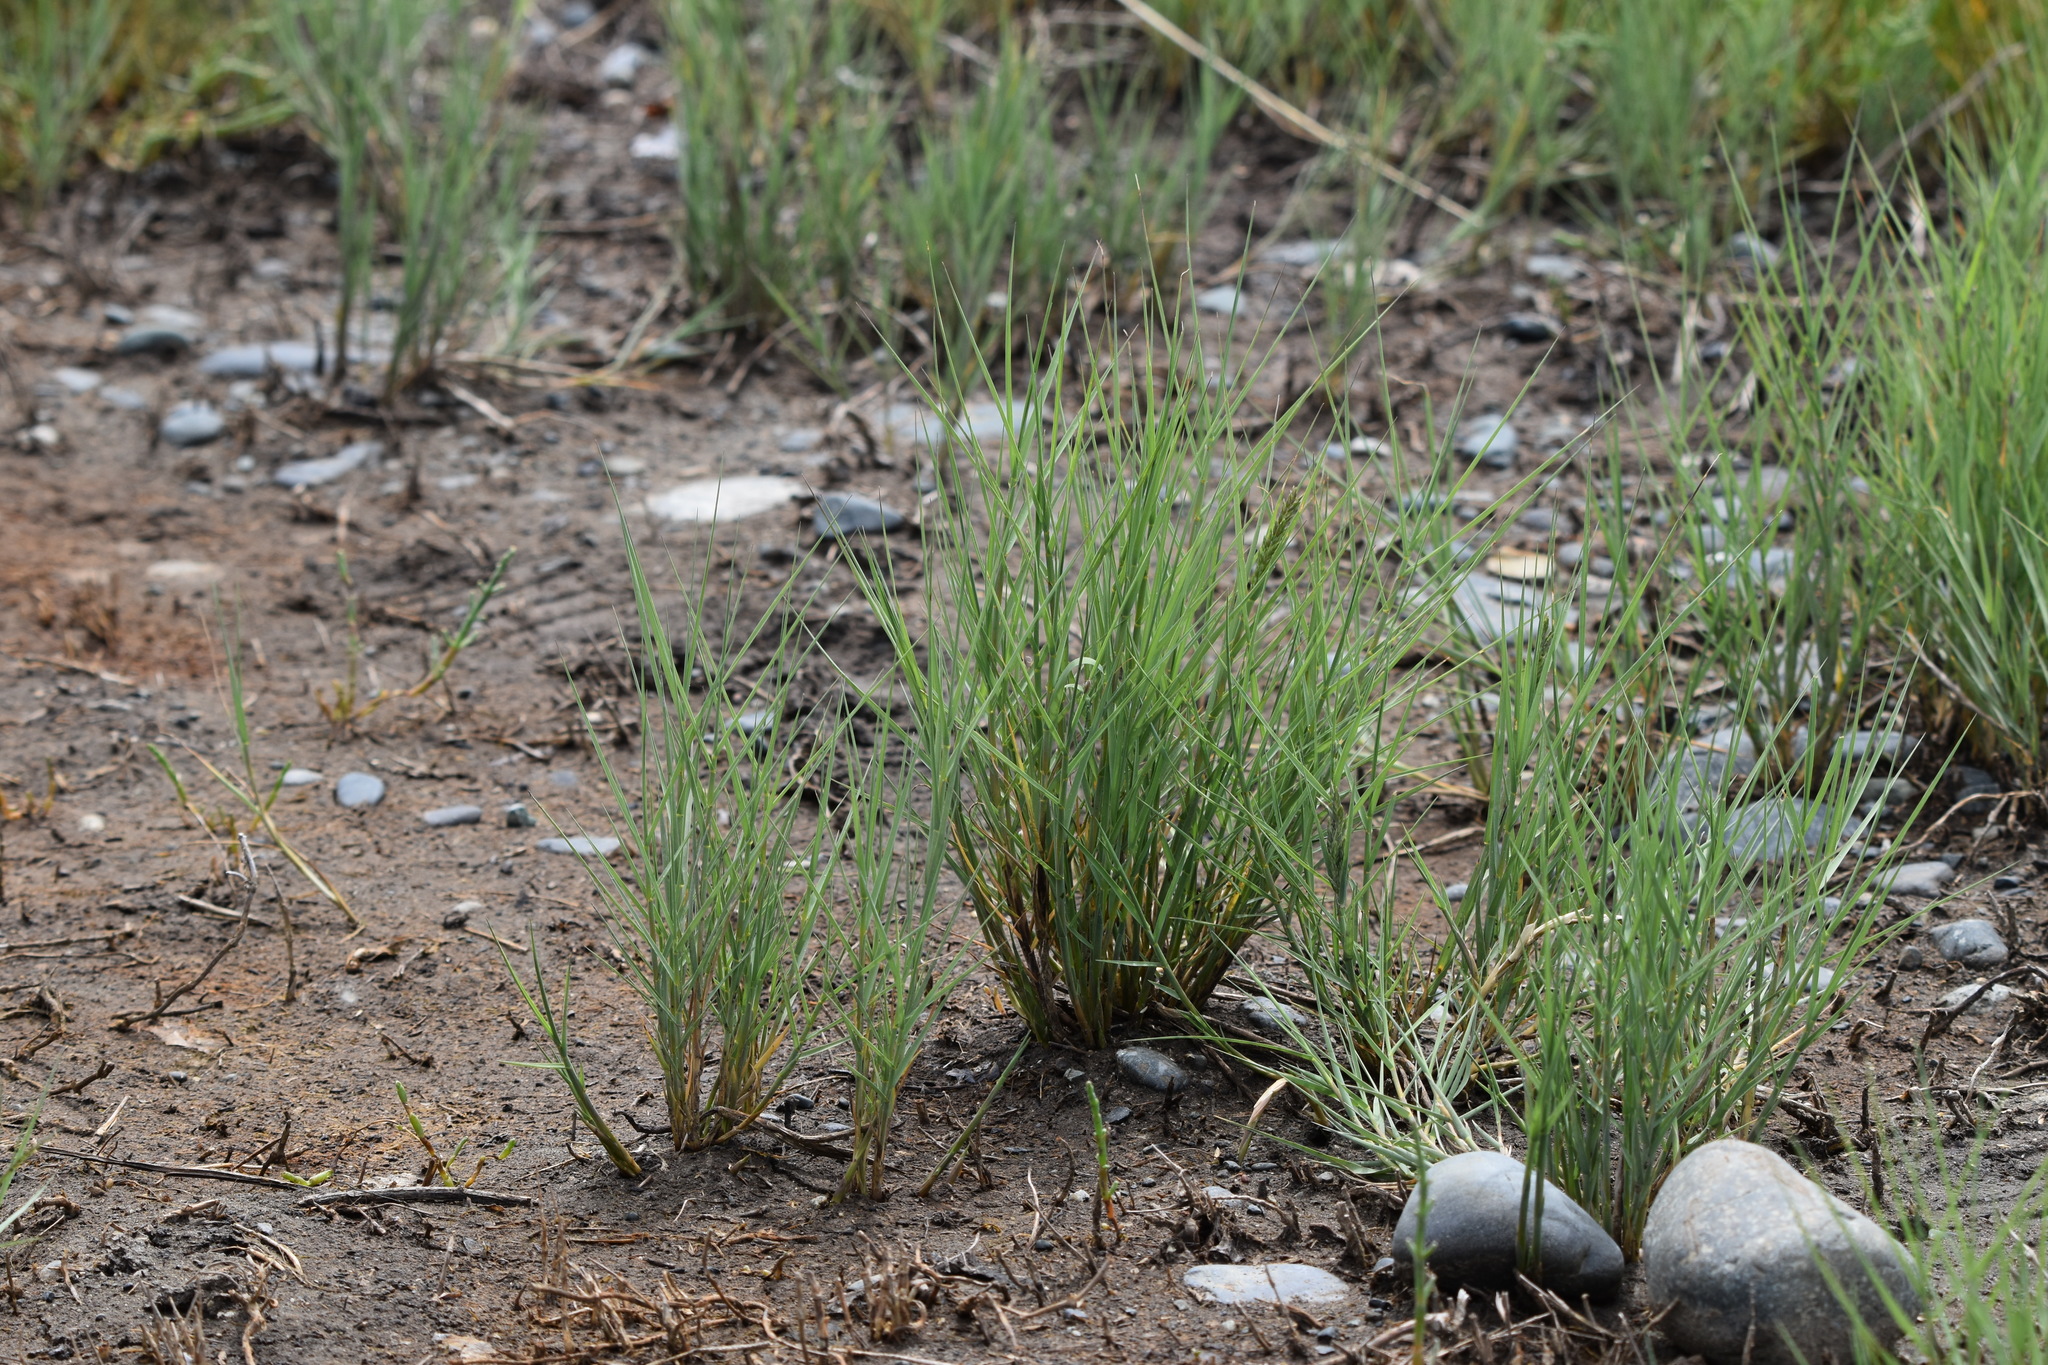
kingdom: Plantae
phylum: Tracheophyta
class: Liliopsida
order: Poales
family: Poaceae
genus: Distichlis
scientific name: Distichlis spicata
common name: Saltgrass
